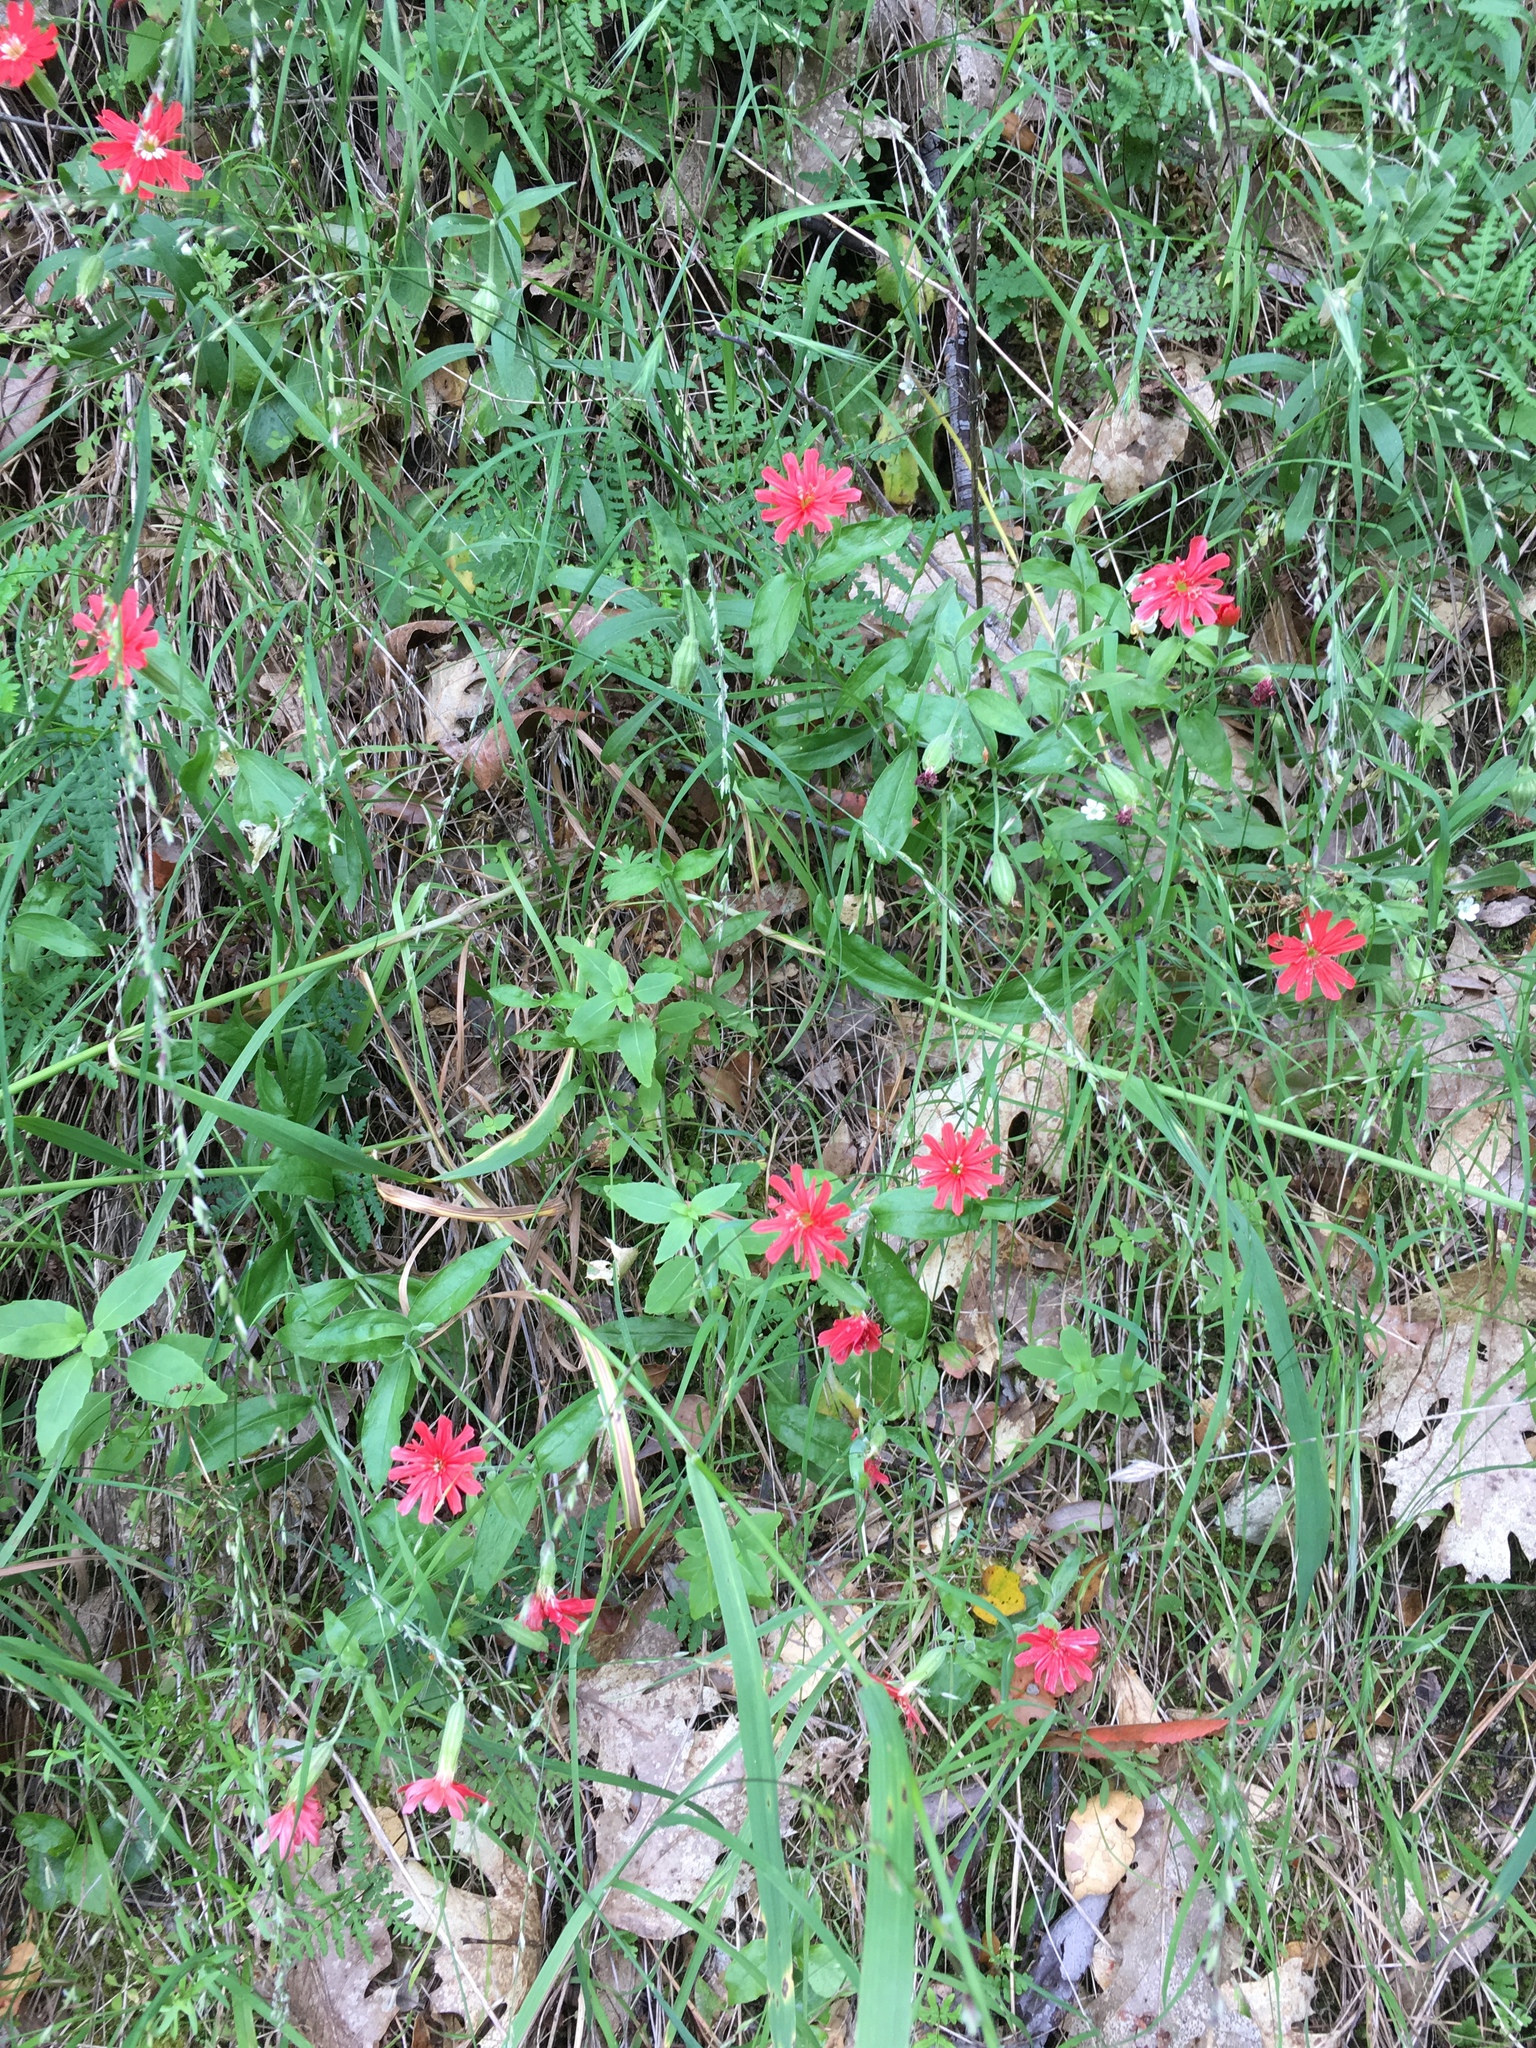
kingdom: Plantae
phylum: Tracheophyta
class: Magnoliopsida
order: Caryophyllales
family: Caryophyllaceae
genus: Silene
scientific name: Silene laciniata
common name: Indian-pink
